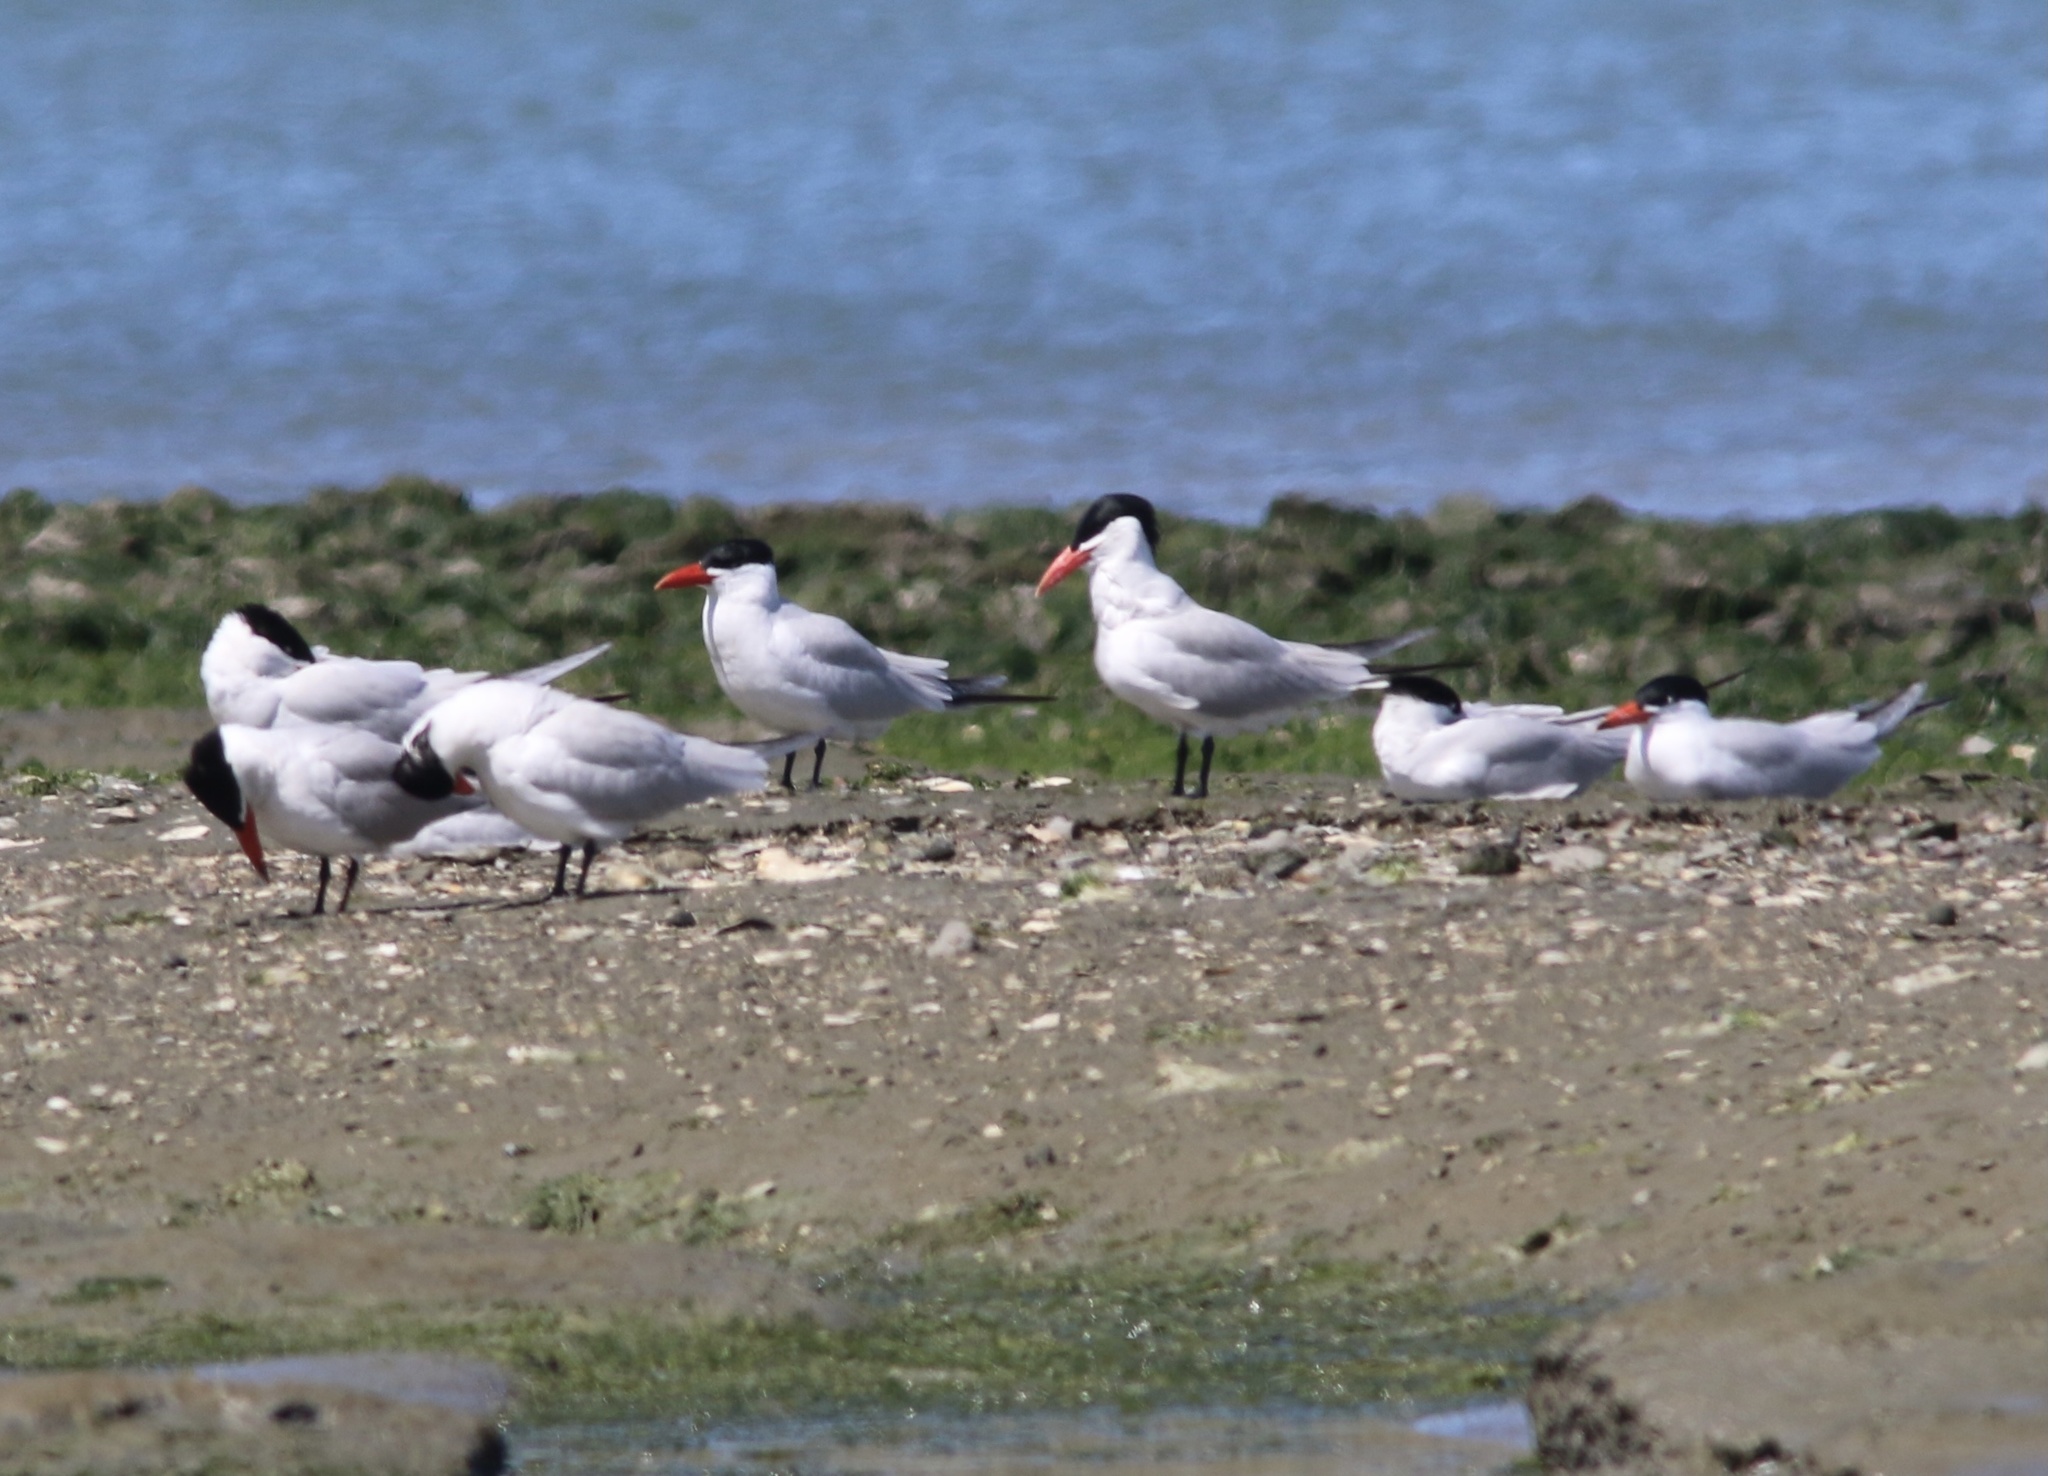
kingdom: Animalia
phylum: Chordata
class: Aves
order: Charadriiformes
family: Laridae
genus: Hydroprogne
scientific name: Hydroprogne caspia
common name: Caspian tern
